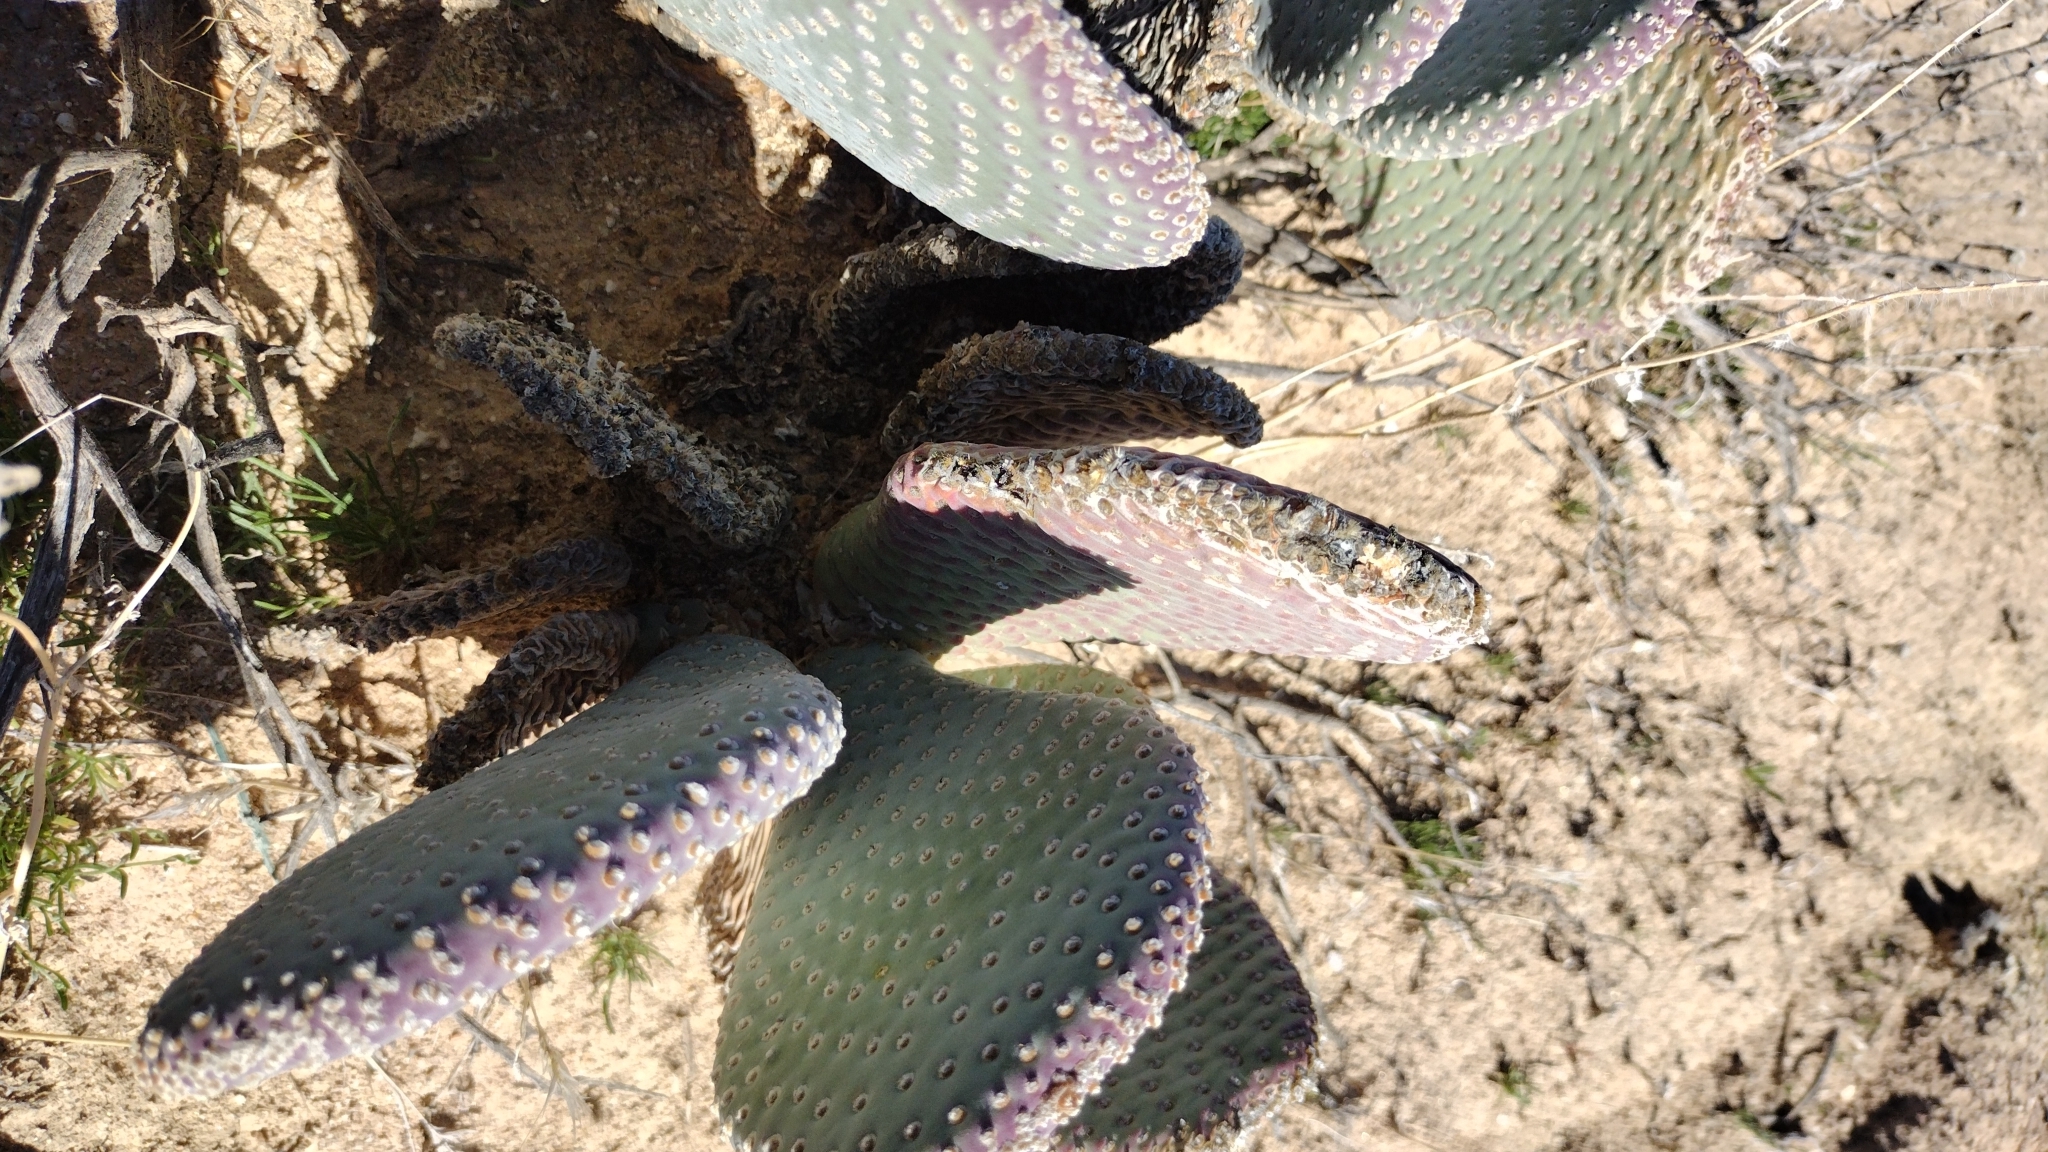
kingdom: Plantae
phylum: Tracheophyta
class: Magnoliopsida
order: Caryophyllales
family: Cactaceae
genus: Opuntia
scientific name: Opuntia basilaris
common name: Beavertail prickly-pear
